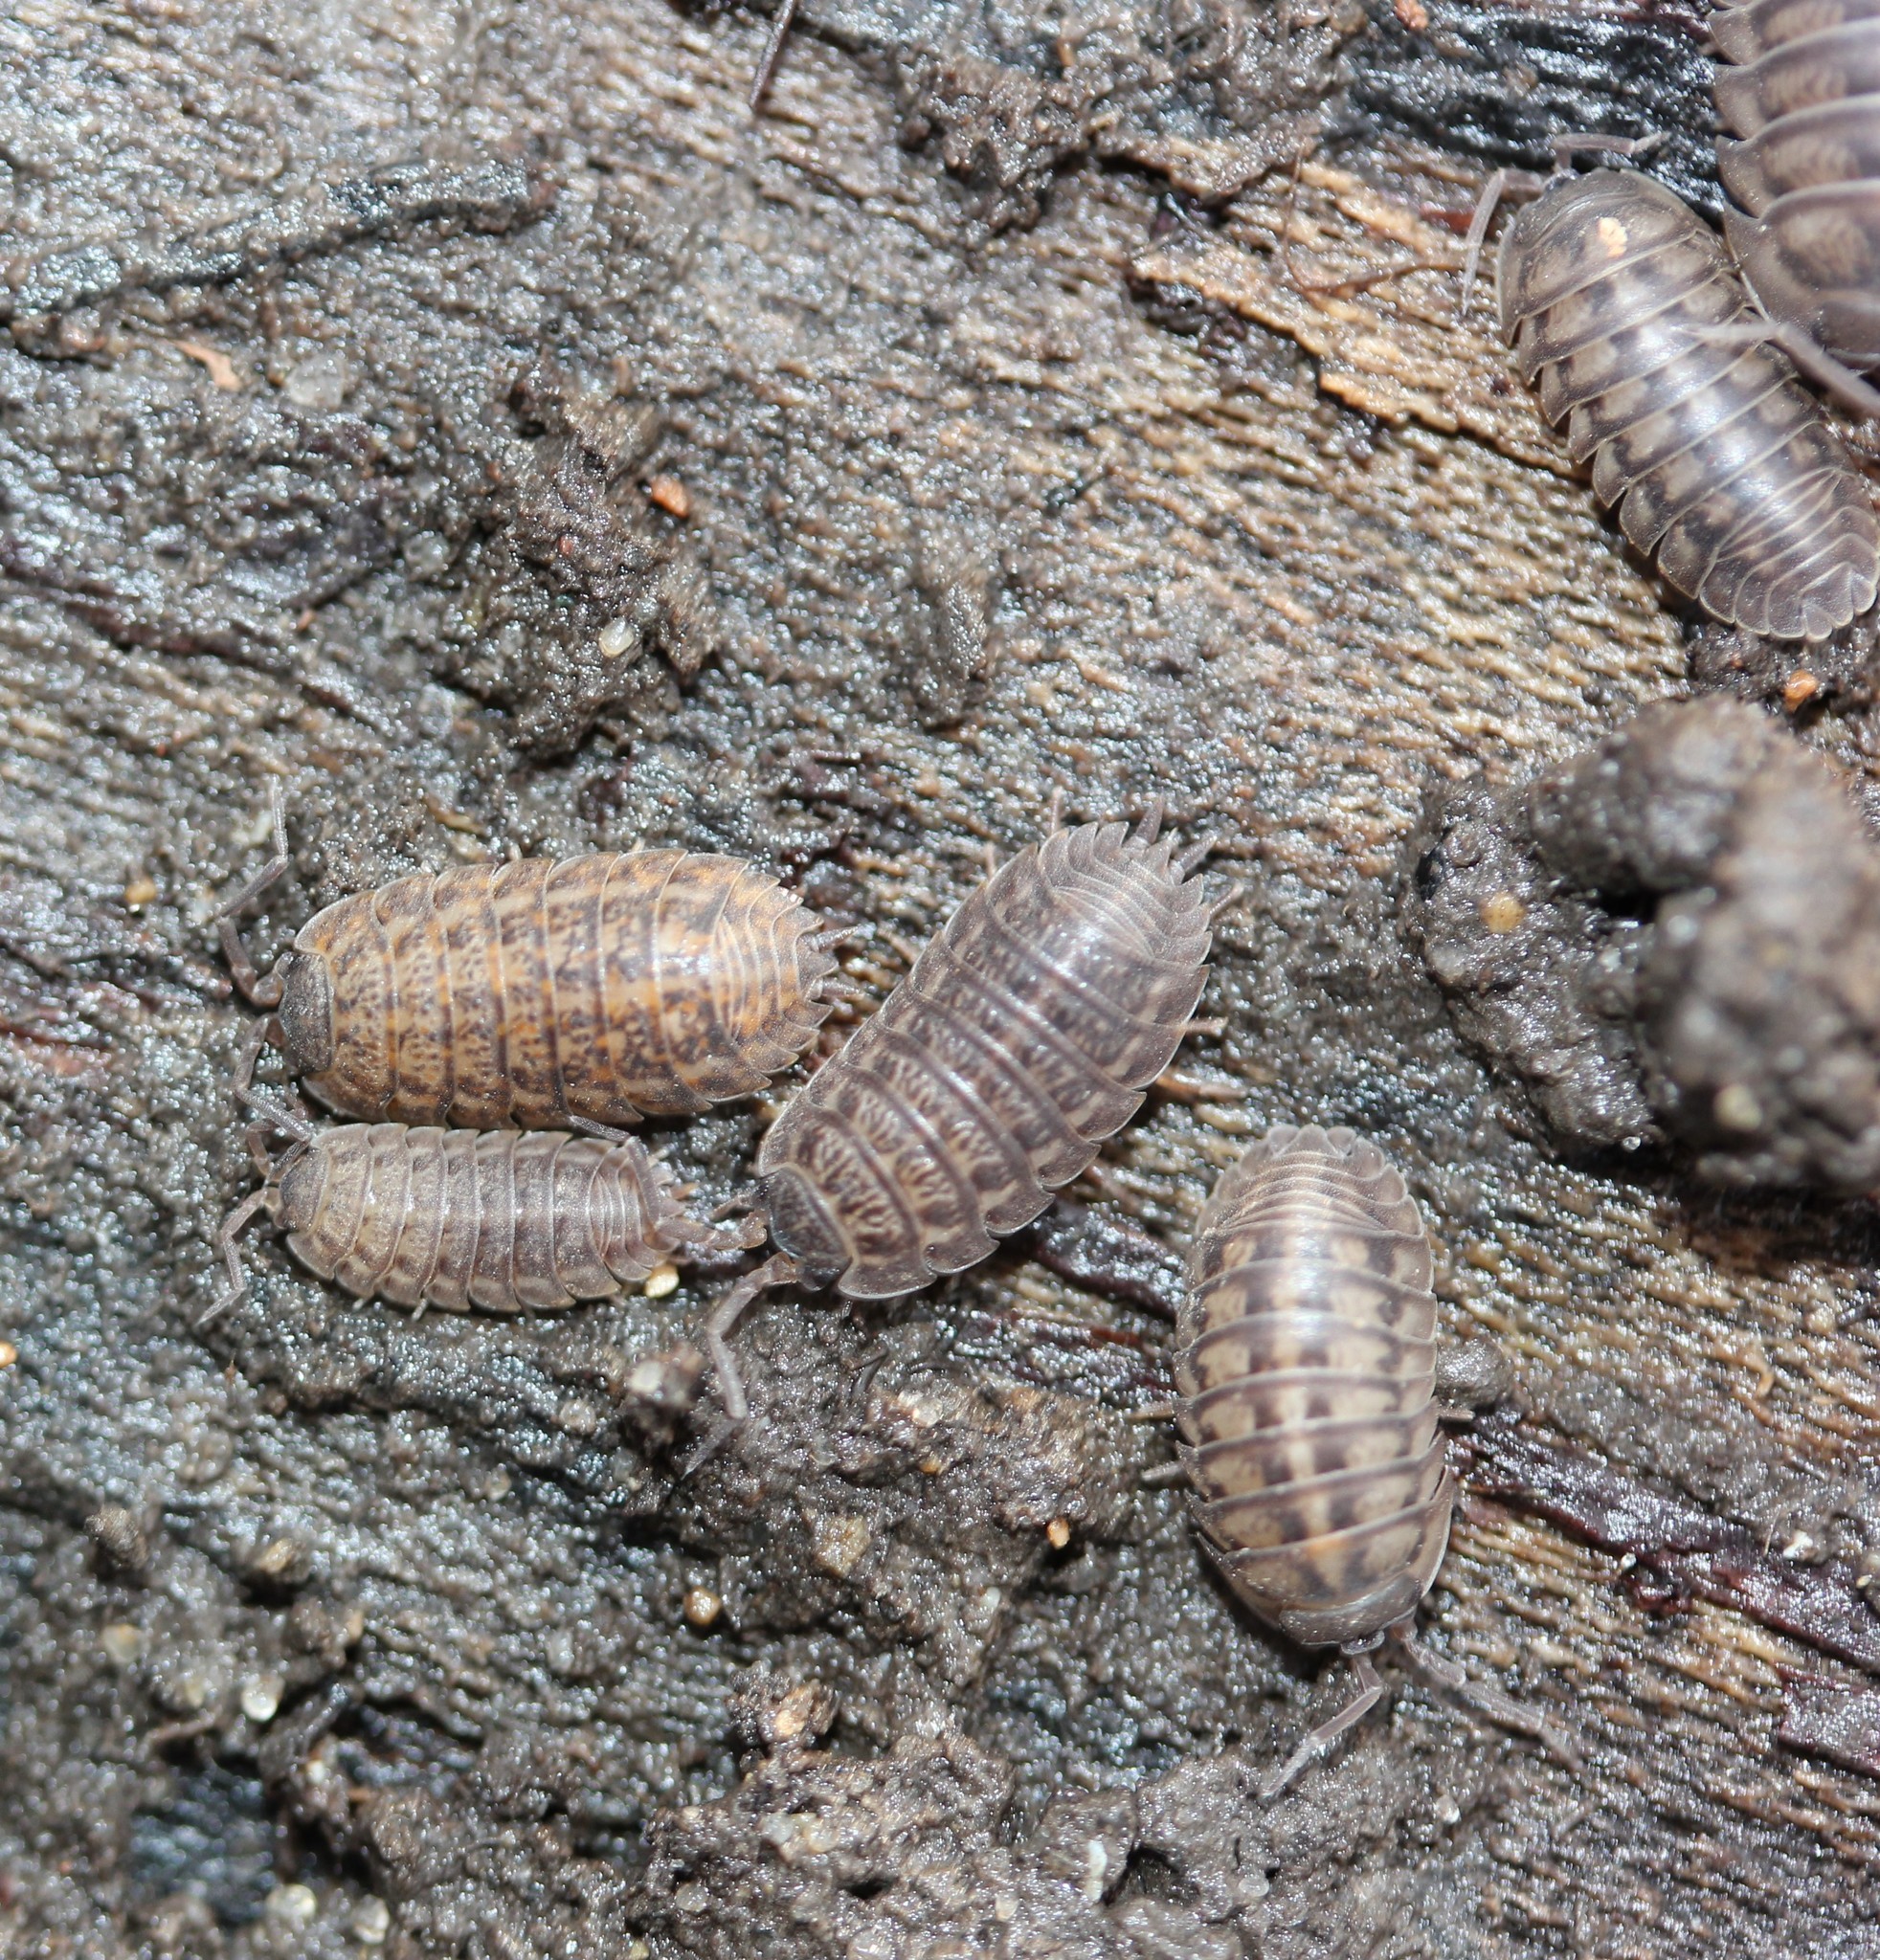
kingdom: Animalia
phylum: Arthropoda
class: Malacostraca
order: Isopoda
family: Trachelipodidae
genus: Trachelipus
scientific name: Trachelipus rathkii
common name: Isopod
